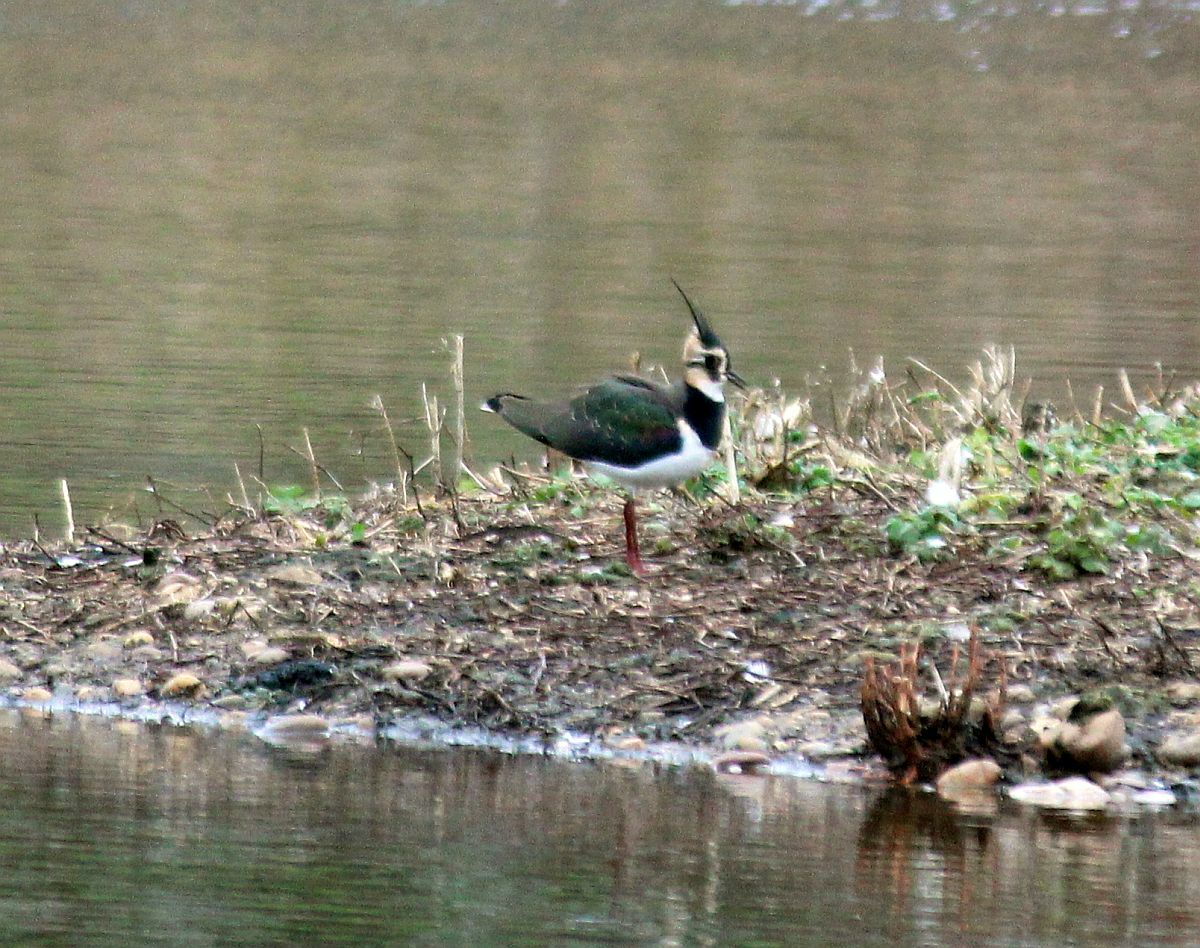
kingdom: Animalia
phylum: Chordata
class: Aves
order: Charadriiformes
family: Charadriidae
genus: Vanellus
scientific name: Vanellus vanellus
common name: Northern lapwing
